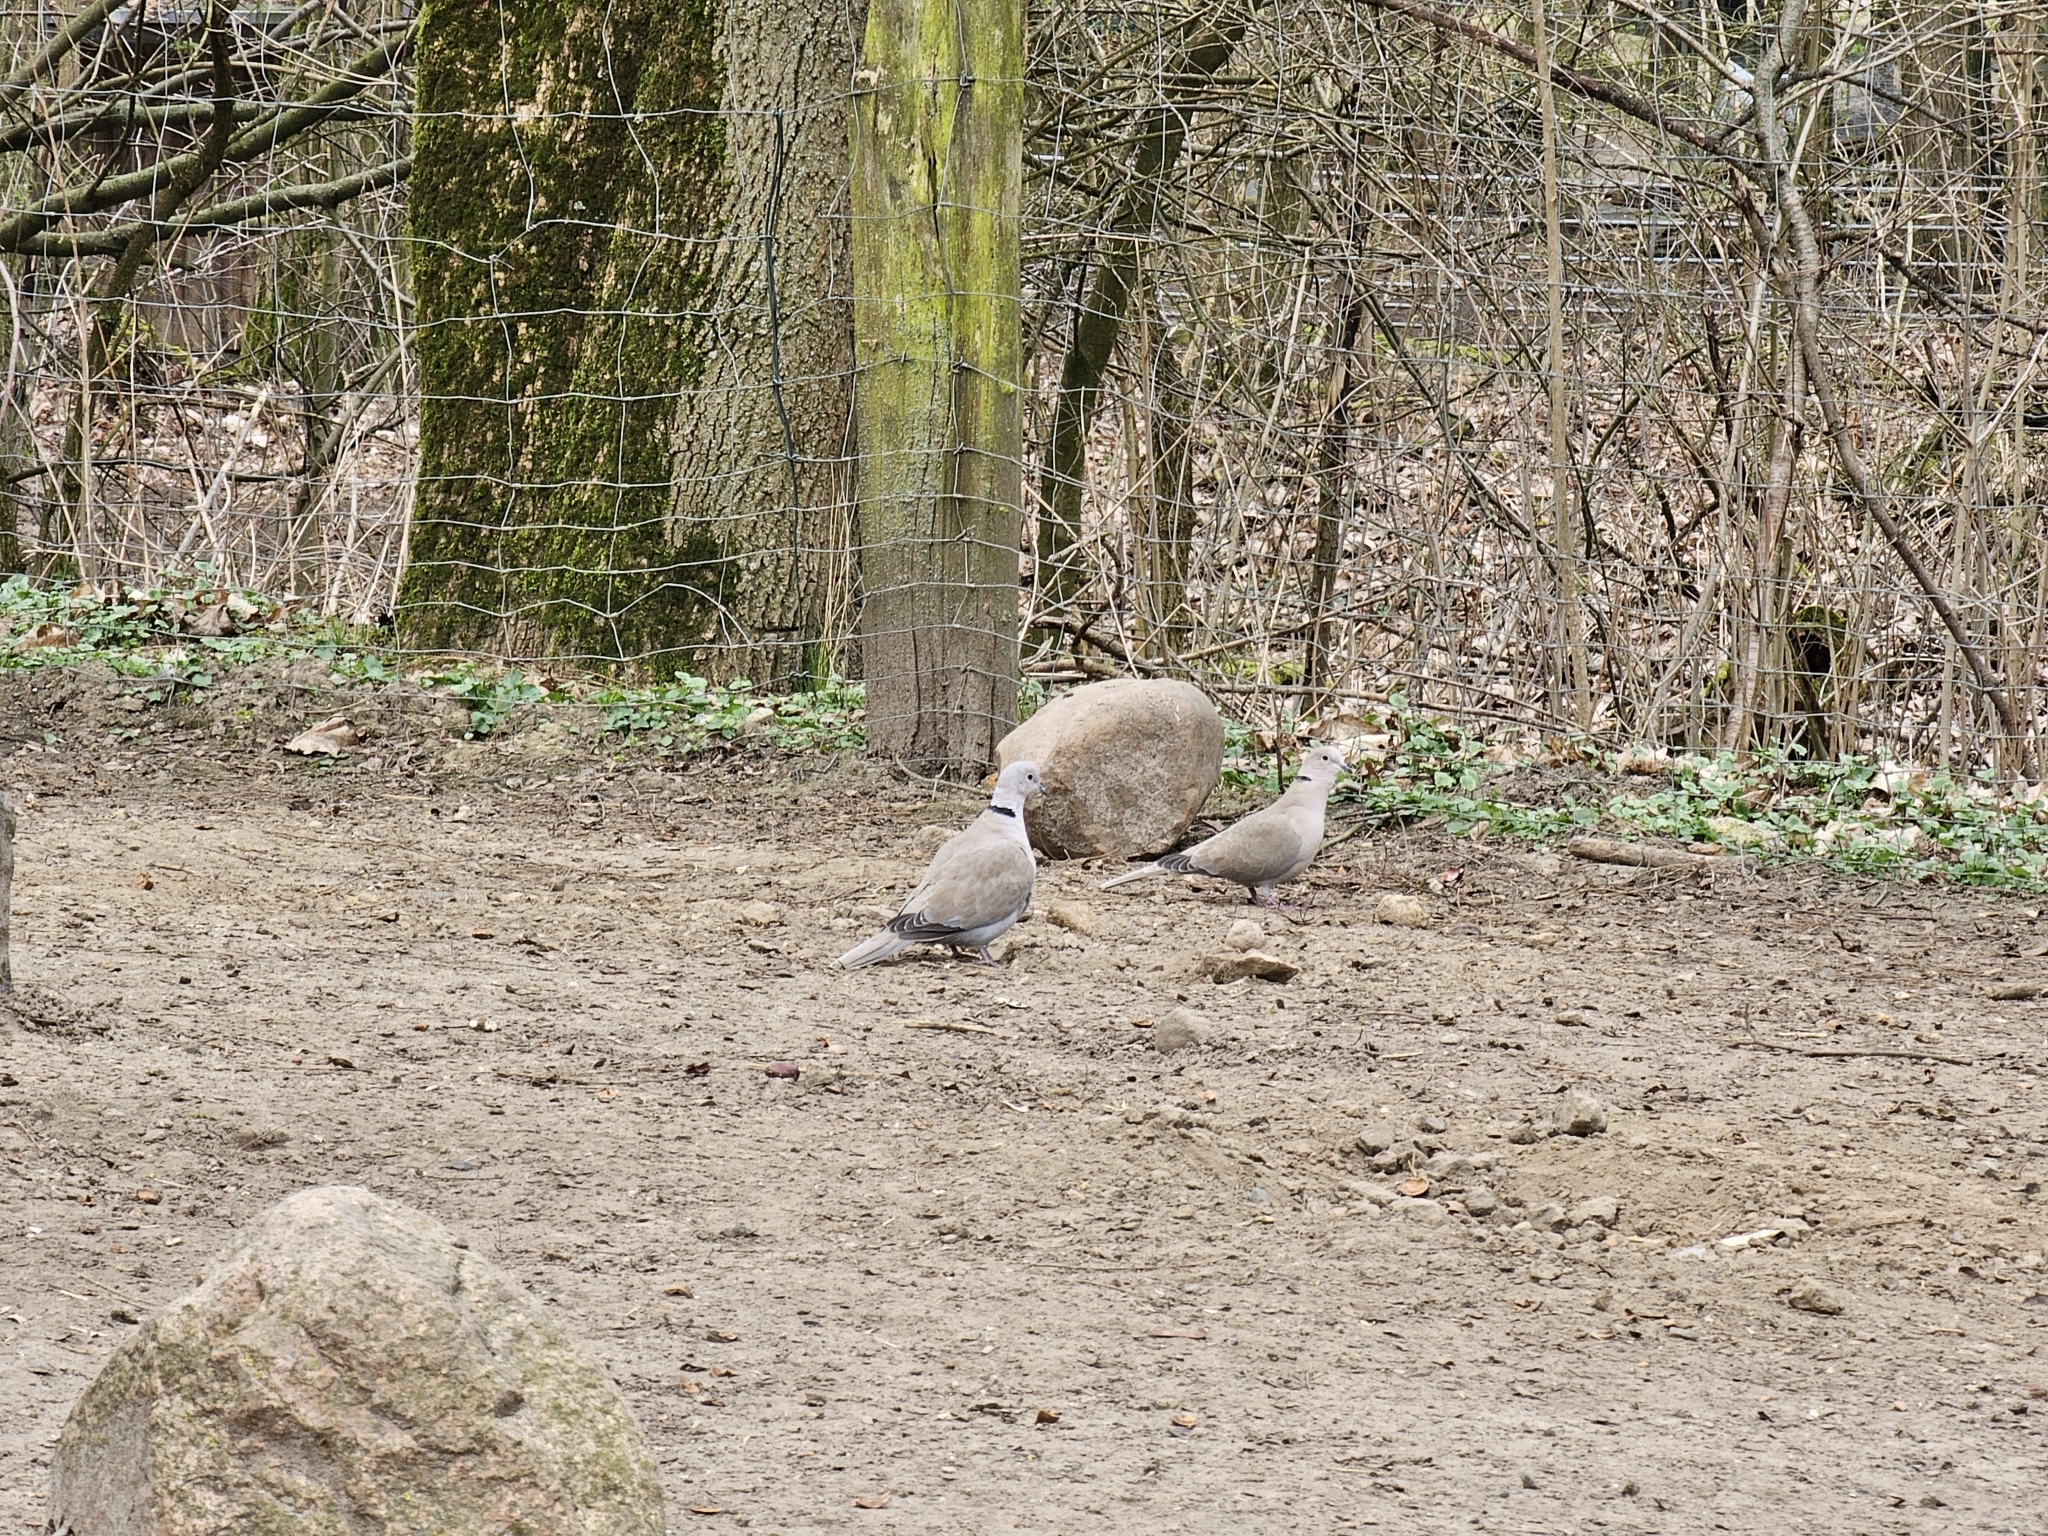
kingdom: Animalia
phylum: Chordata
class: Aves
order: Columbiformes
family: Columbidae
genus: Streptopelia
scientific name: Streptopelia decaocto
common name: Eurasian collared dove
